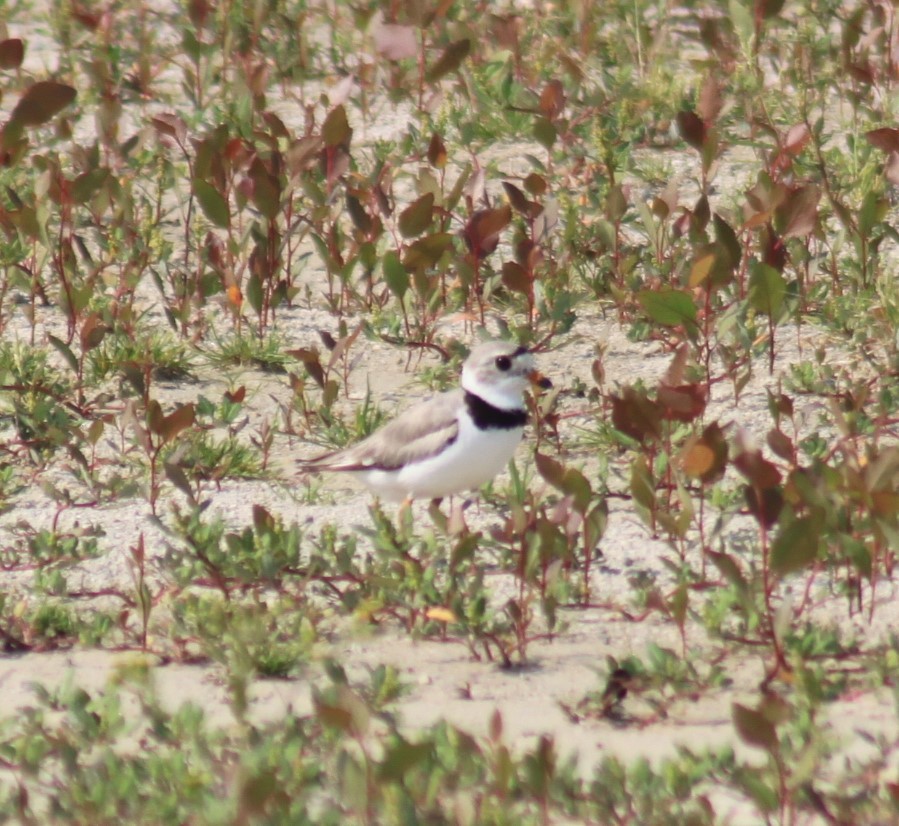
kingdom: Animalia
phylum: Chordata
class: Aves
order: Charadriiformes
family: Charadriidae
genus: Charadrius
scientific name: Charadrius melodus
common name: Piping plover
